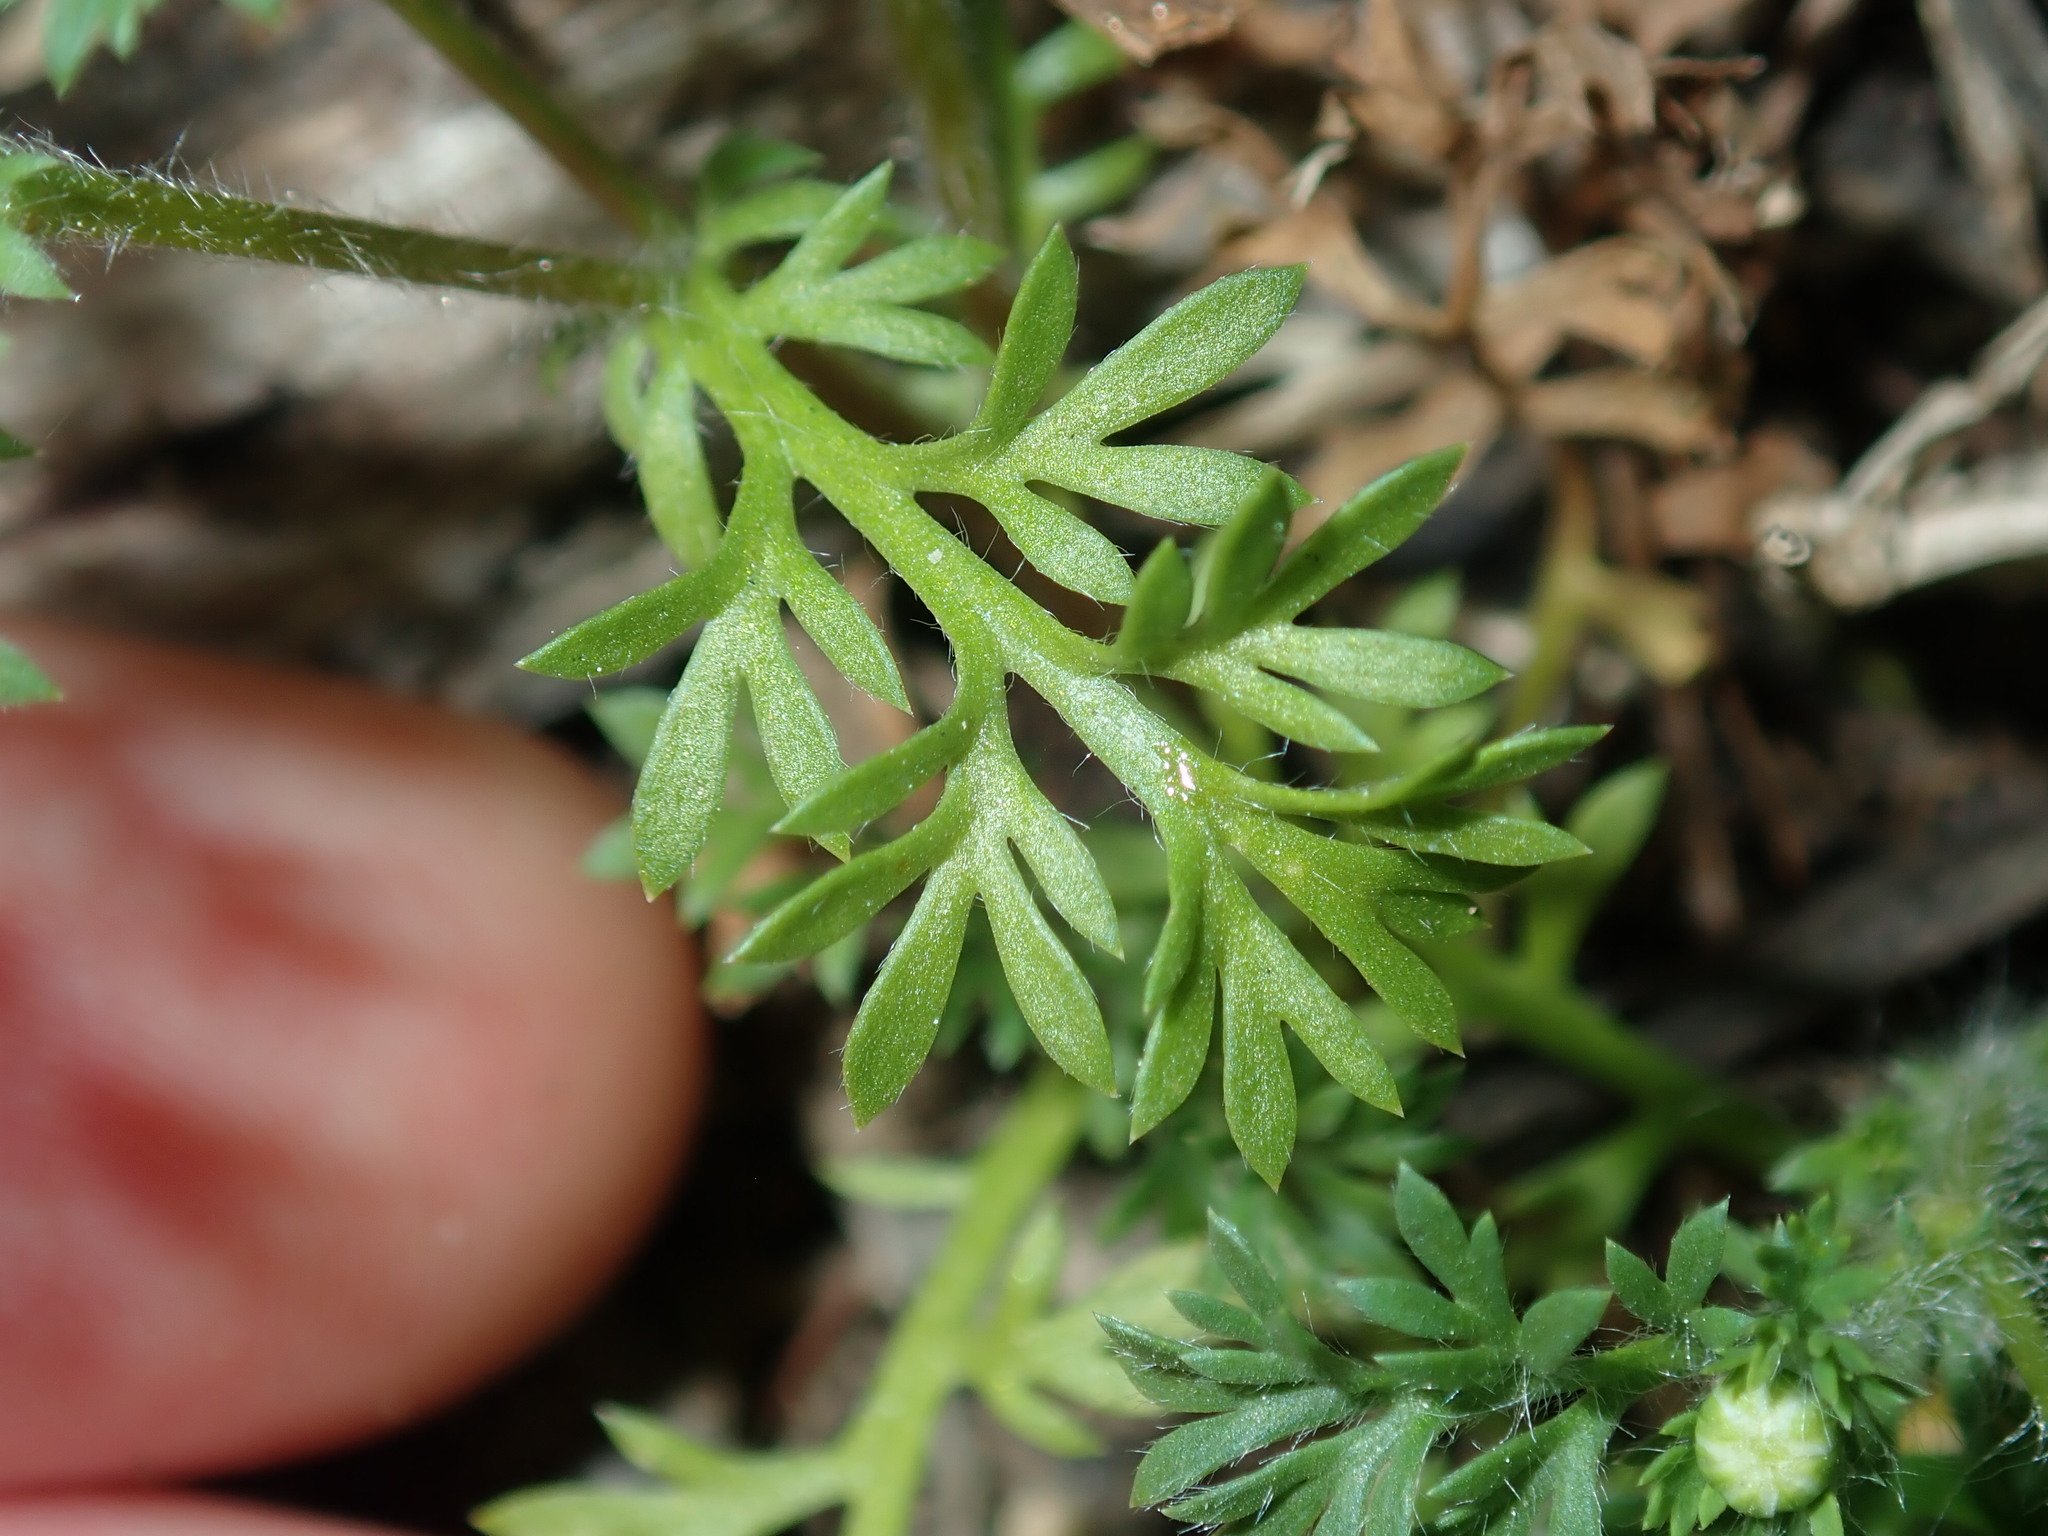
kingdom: Plantae
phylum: Tracheophyta
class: Magnoliopsida
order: Asterales
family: Asteraceae
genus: Cotula
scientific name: Cotula australis
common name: Australian waterbuttons
